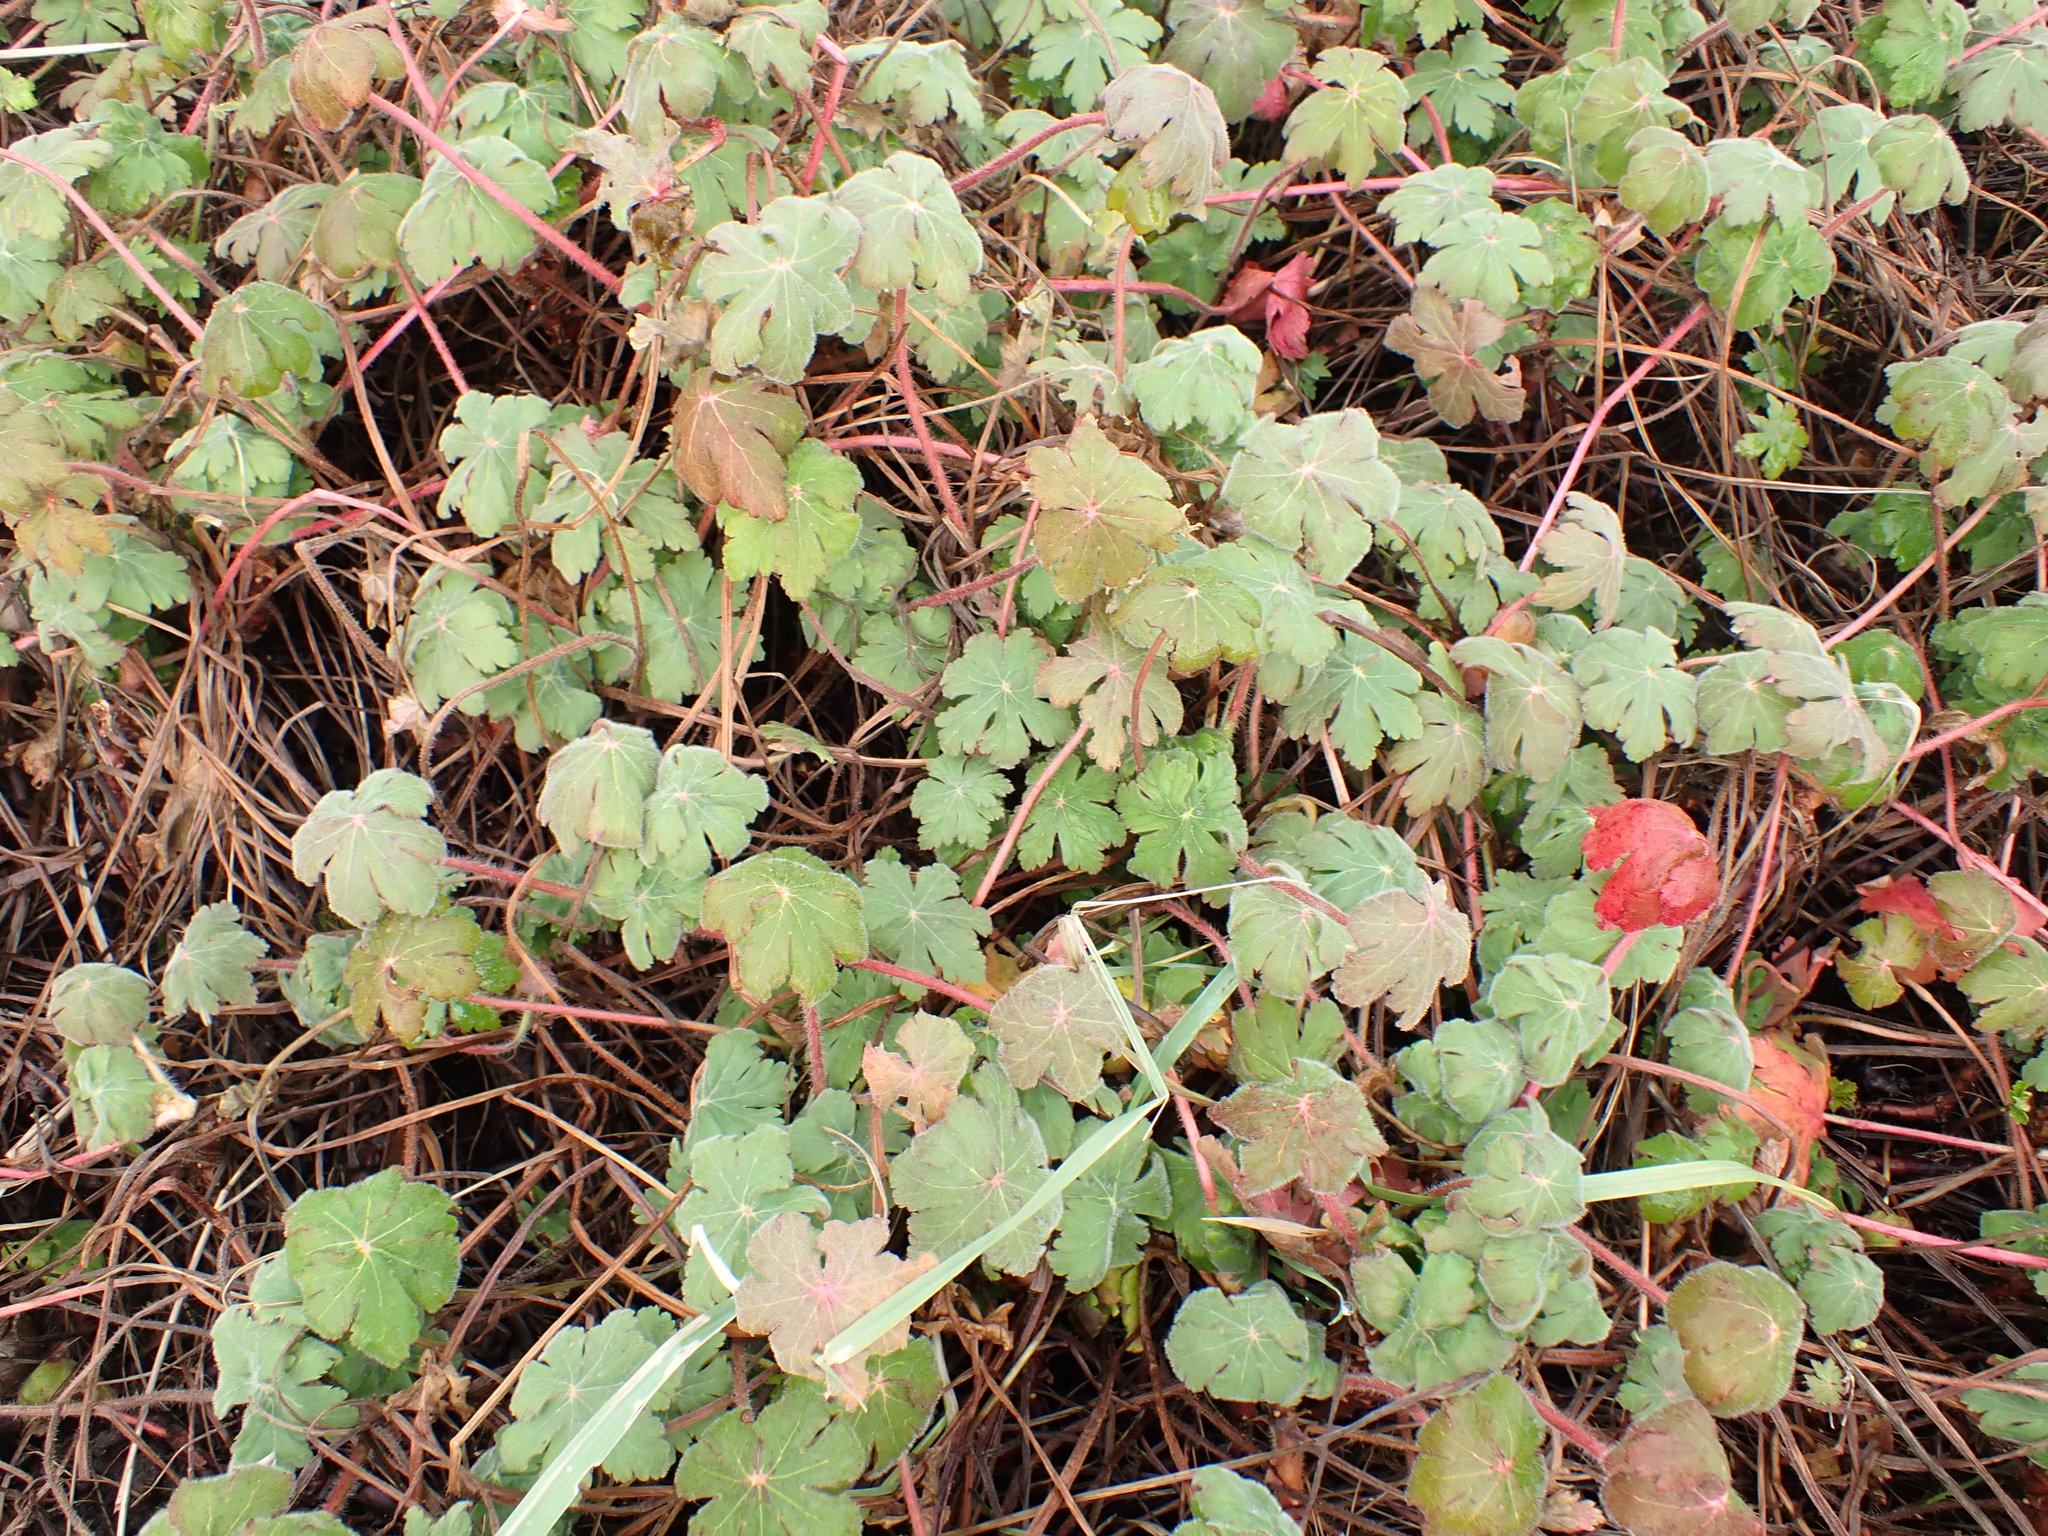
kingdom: Plantae
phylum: Tracheophyta
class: Magnoliopsida
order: Geraniales
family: Geraniaceae
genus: Geranium
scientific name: Geranium macrorrhizum
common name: Rock crane's-bill
